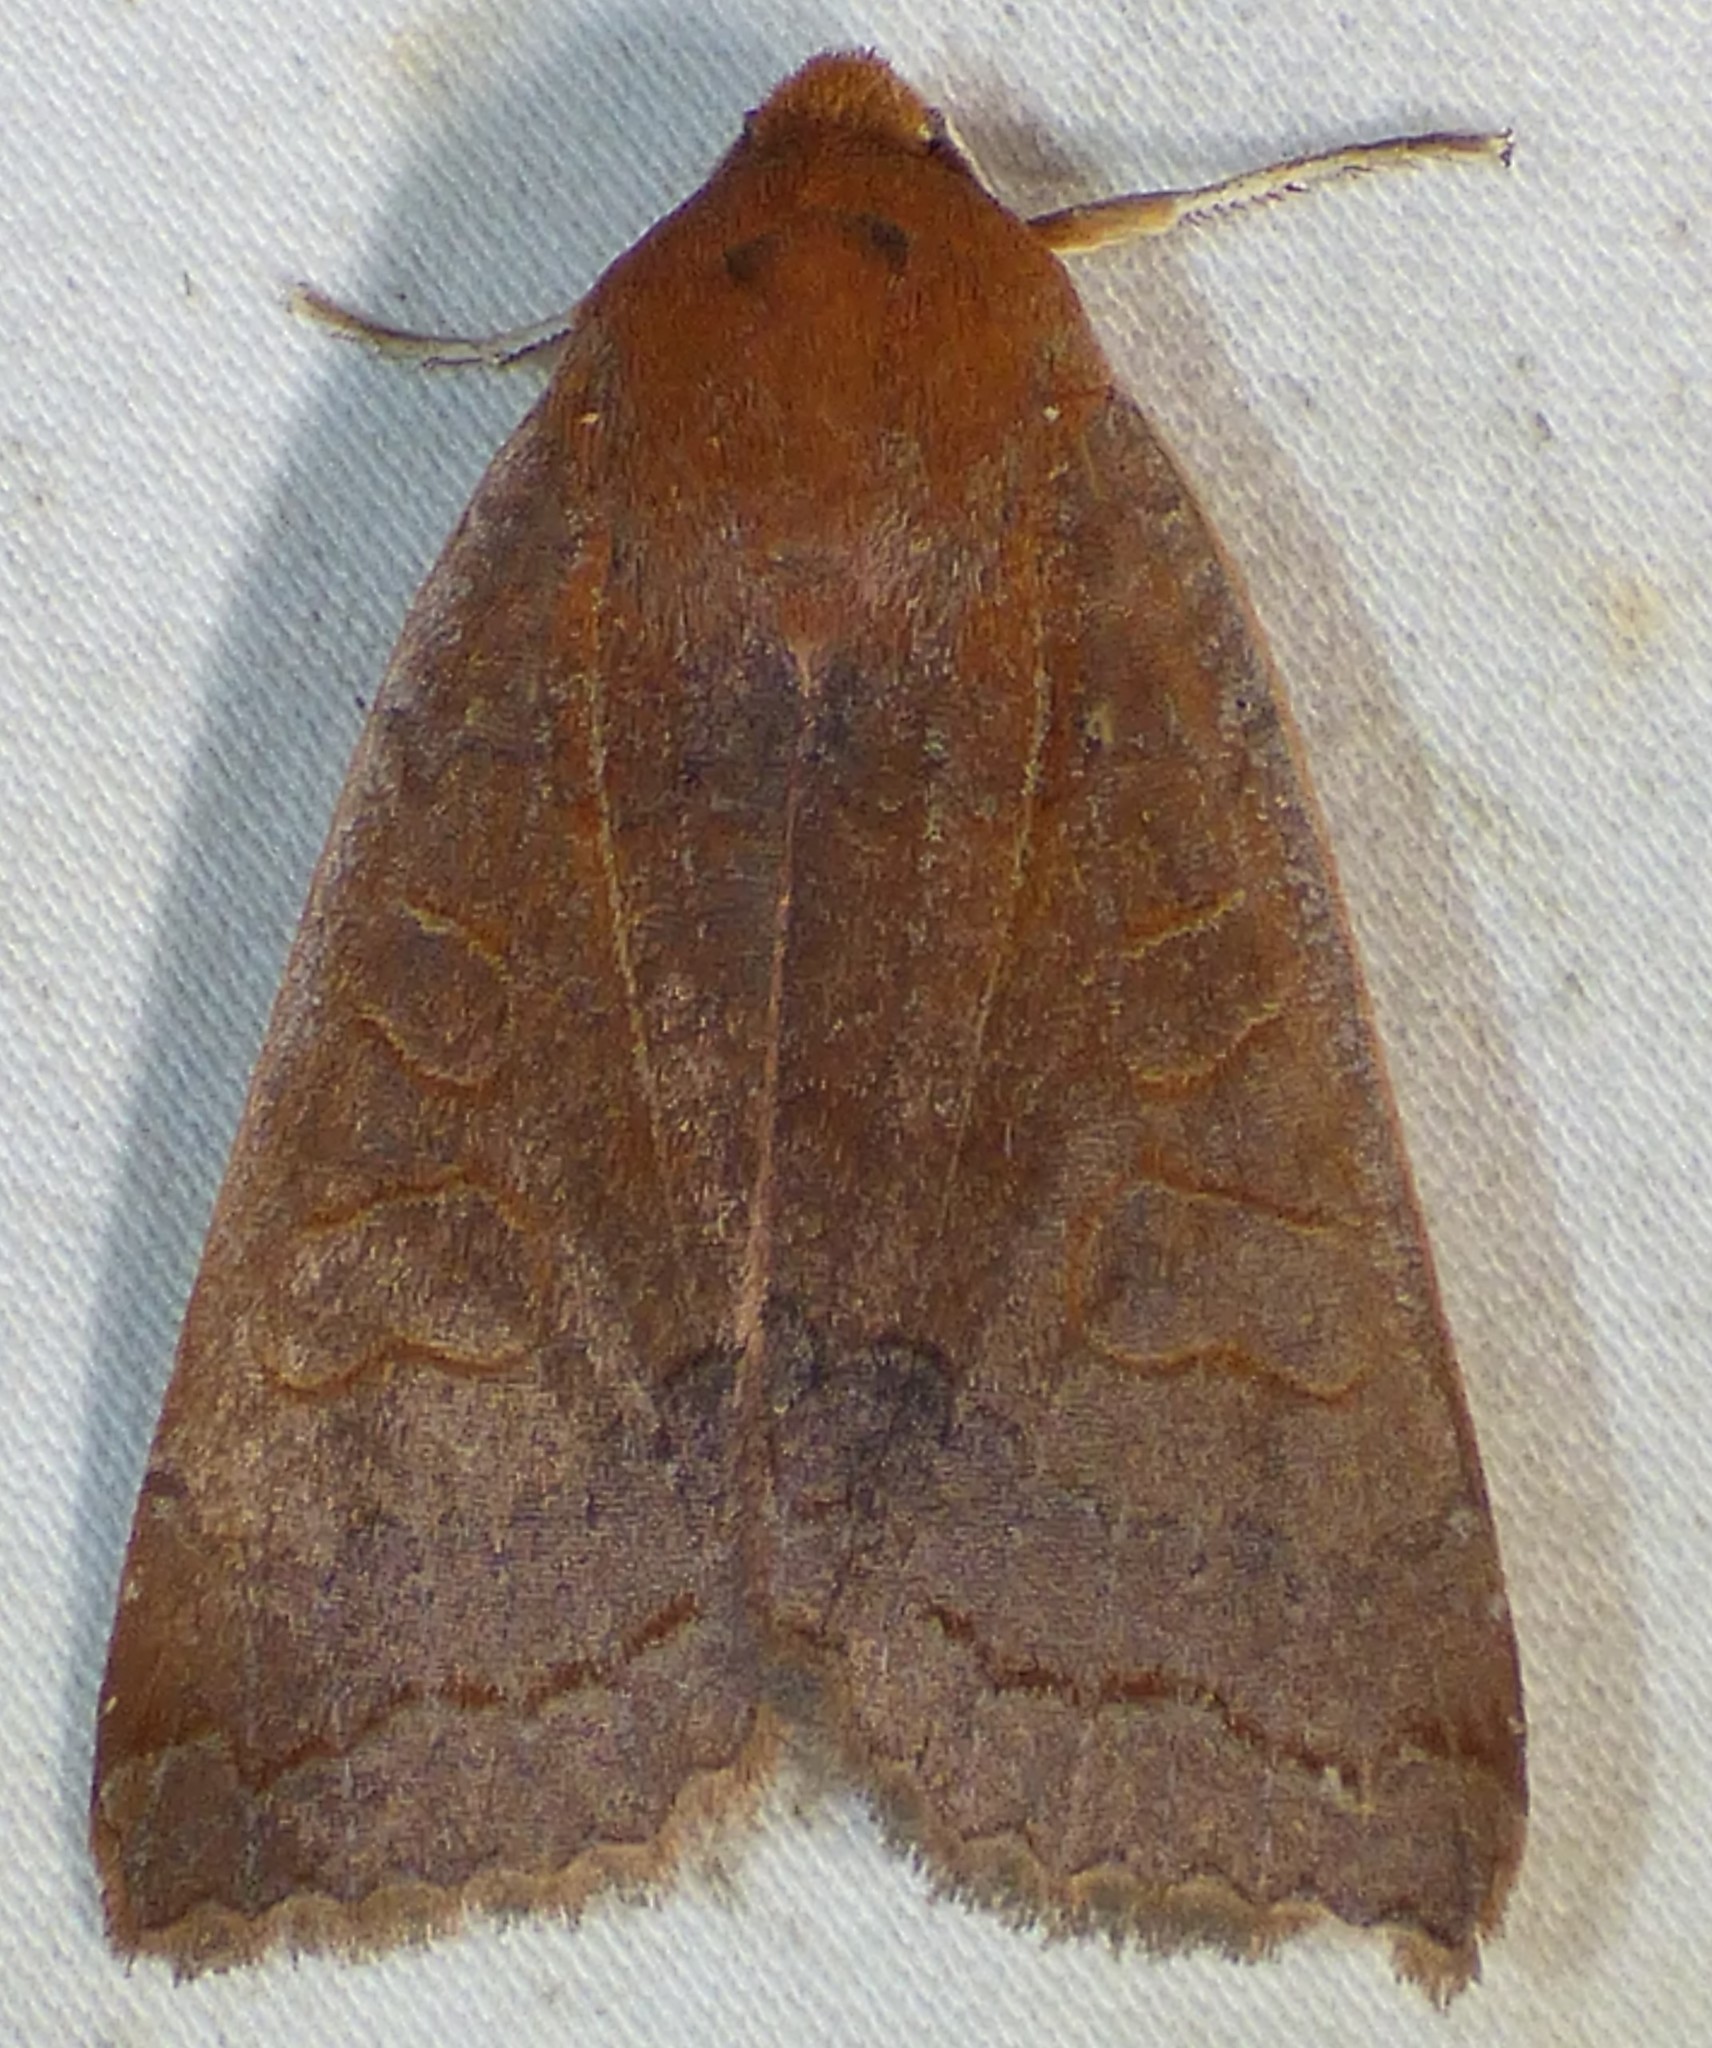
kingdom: Animalia
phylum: Arthropoda
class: Insecta
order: Lepidoptera
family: Noctuidae
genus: Metaxaglaea
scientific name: Metaxaglaea viatica
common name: Roadside sallow
